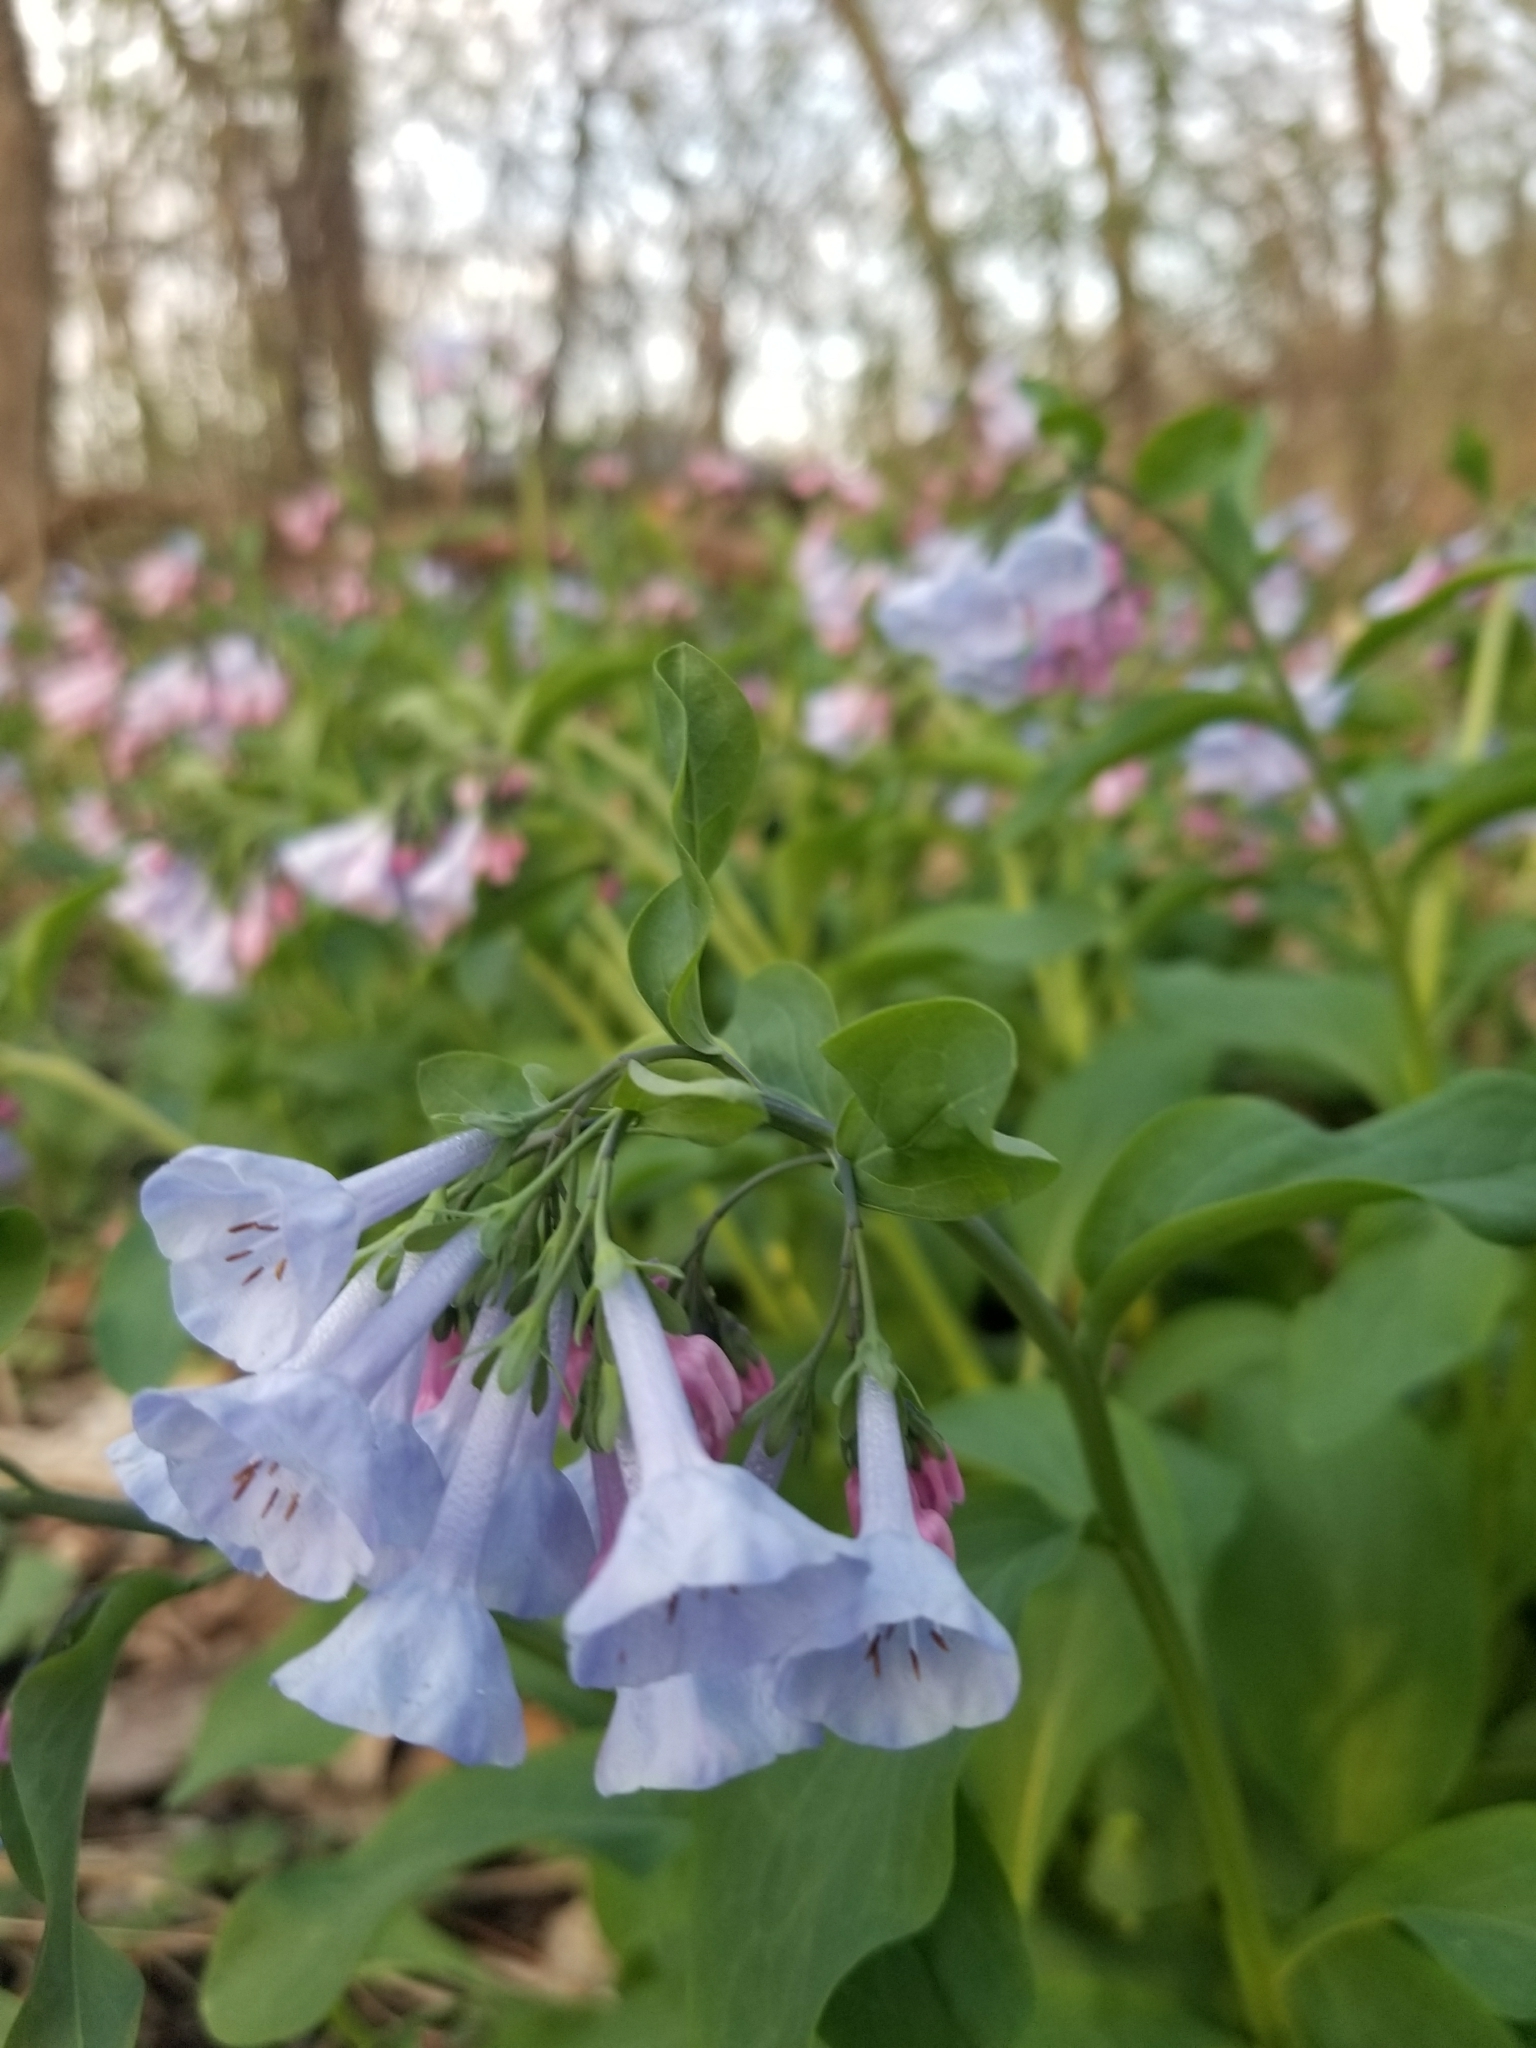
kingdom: Plantae
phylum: Tracheophyta
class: Magnoliopsida
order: Boraginales
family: Boraginaceae
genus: Mertensia
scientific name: Mertensia virginica
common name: Virginia bluebells
